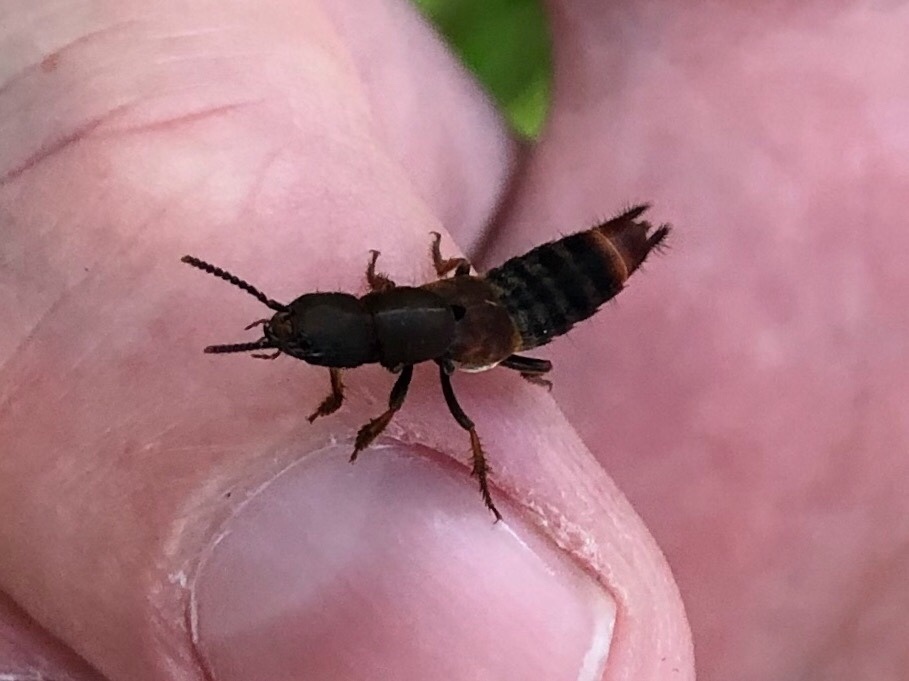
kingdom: Animalia
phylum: Arthropoda
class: Insecta
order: Coleoptera
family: Staphylinidae
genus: Platydracus
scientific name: Platydracus cinnamopterus
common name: Cinnamon rove beetle
